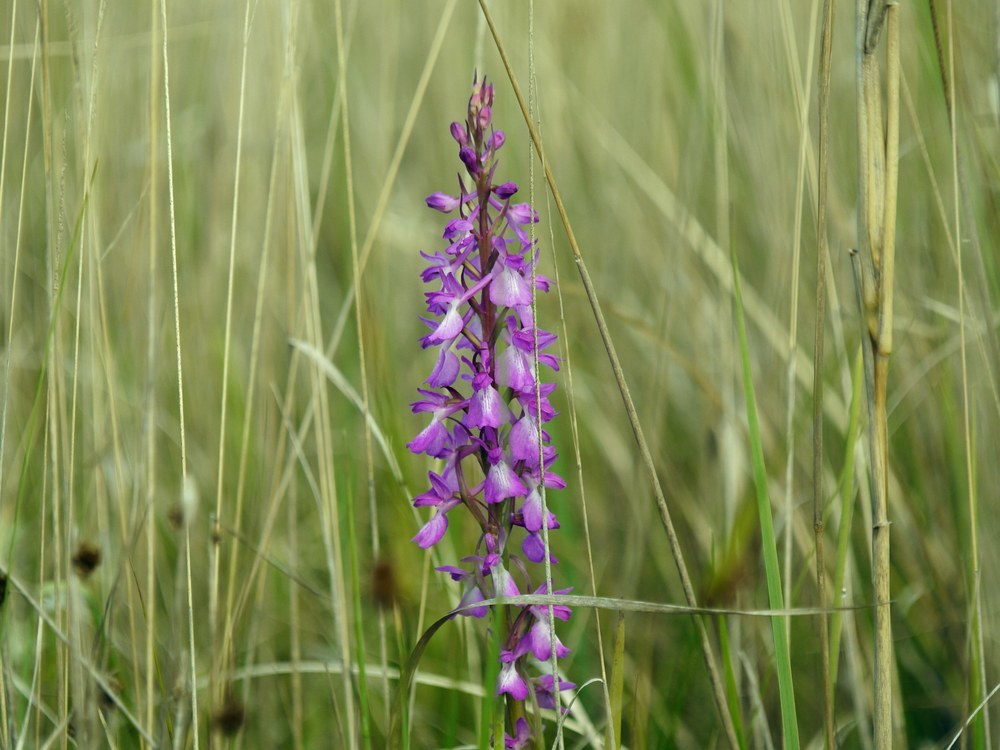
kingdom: Plantae
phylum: Tracheophyta
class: Liliopsida
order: Asparagales
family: Orchidaceae
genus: Anacamptis
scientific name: Anacamptis palustris
